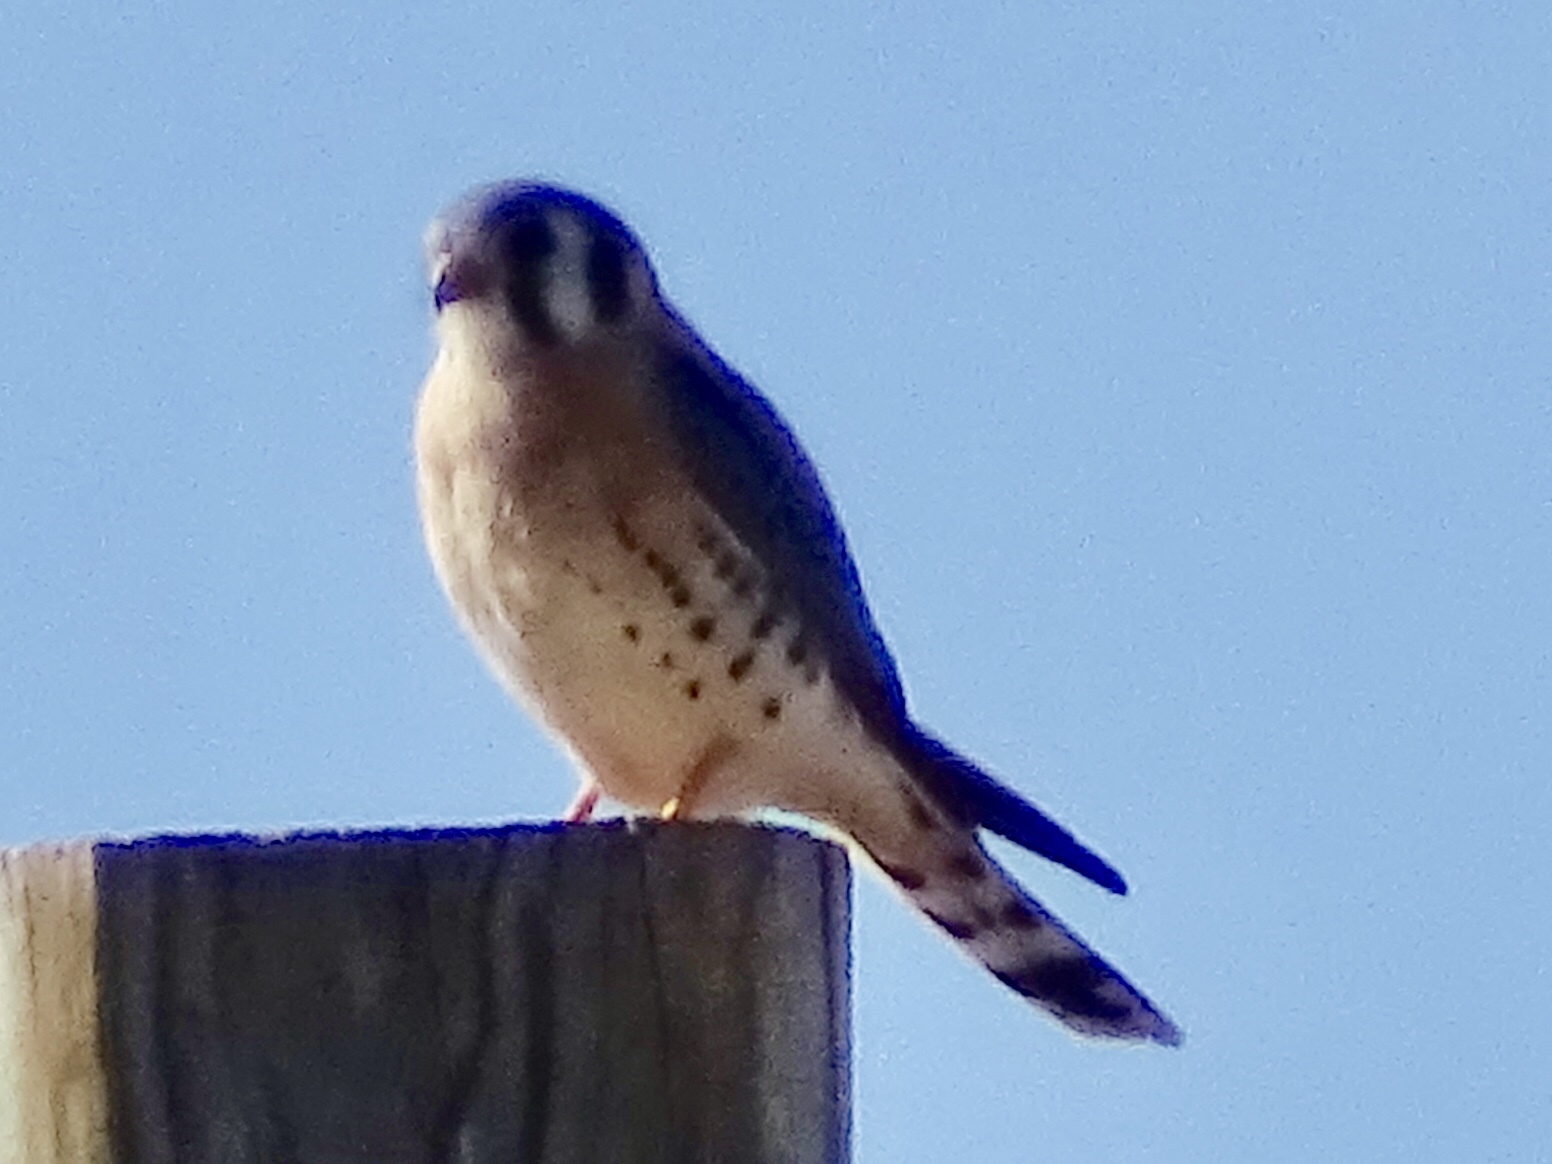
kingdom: Animalia
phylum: Chordata
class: Aves
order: Falconiformes
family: Falconidae
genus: Falco
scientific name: Falco sparverius
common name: American kestrel
